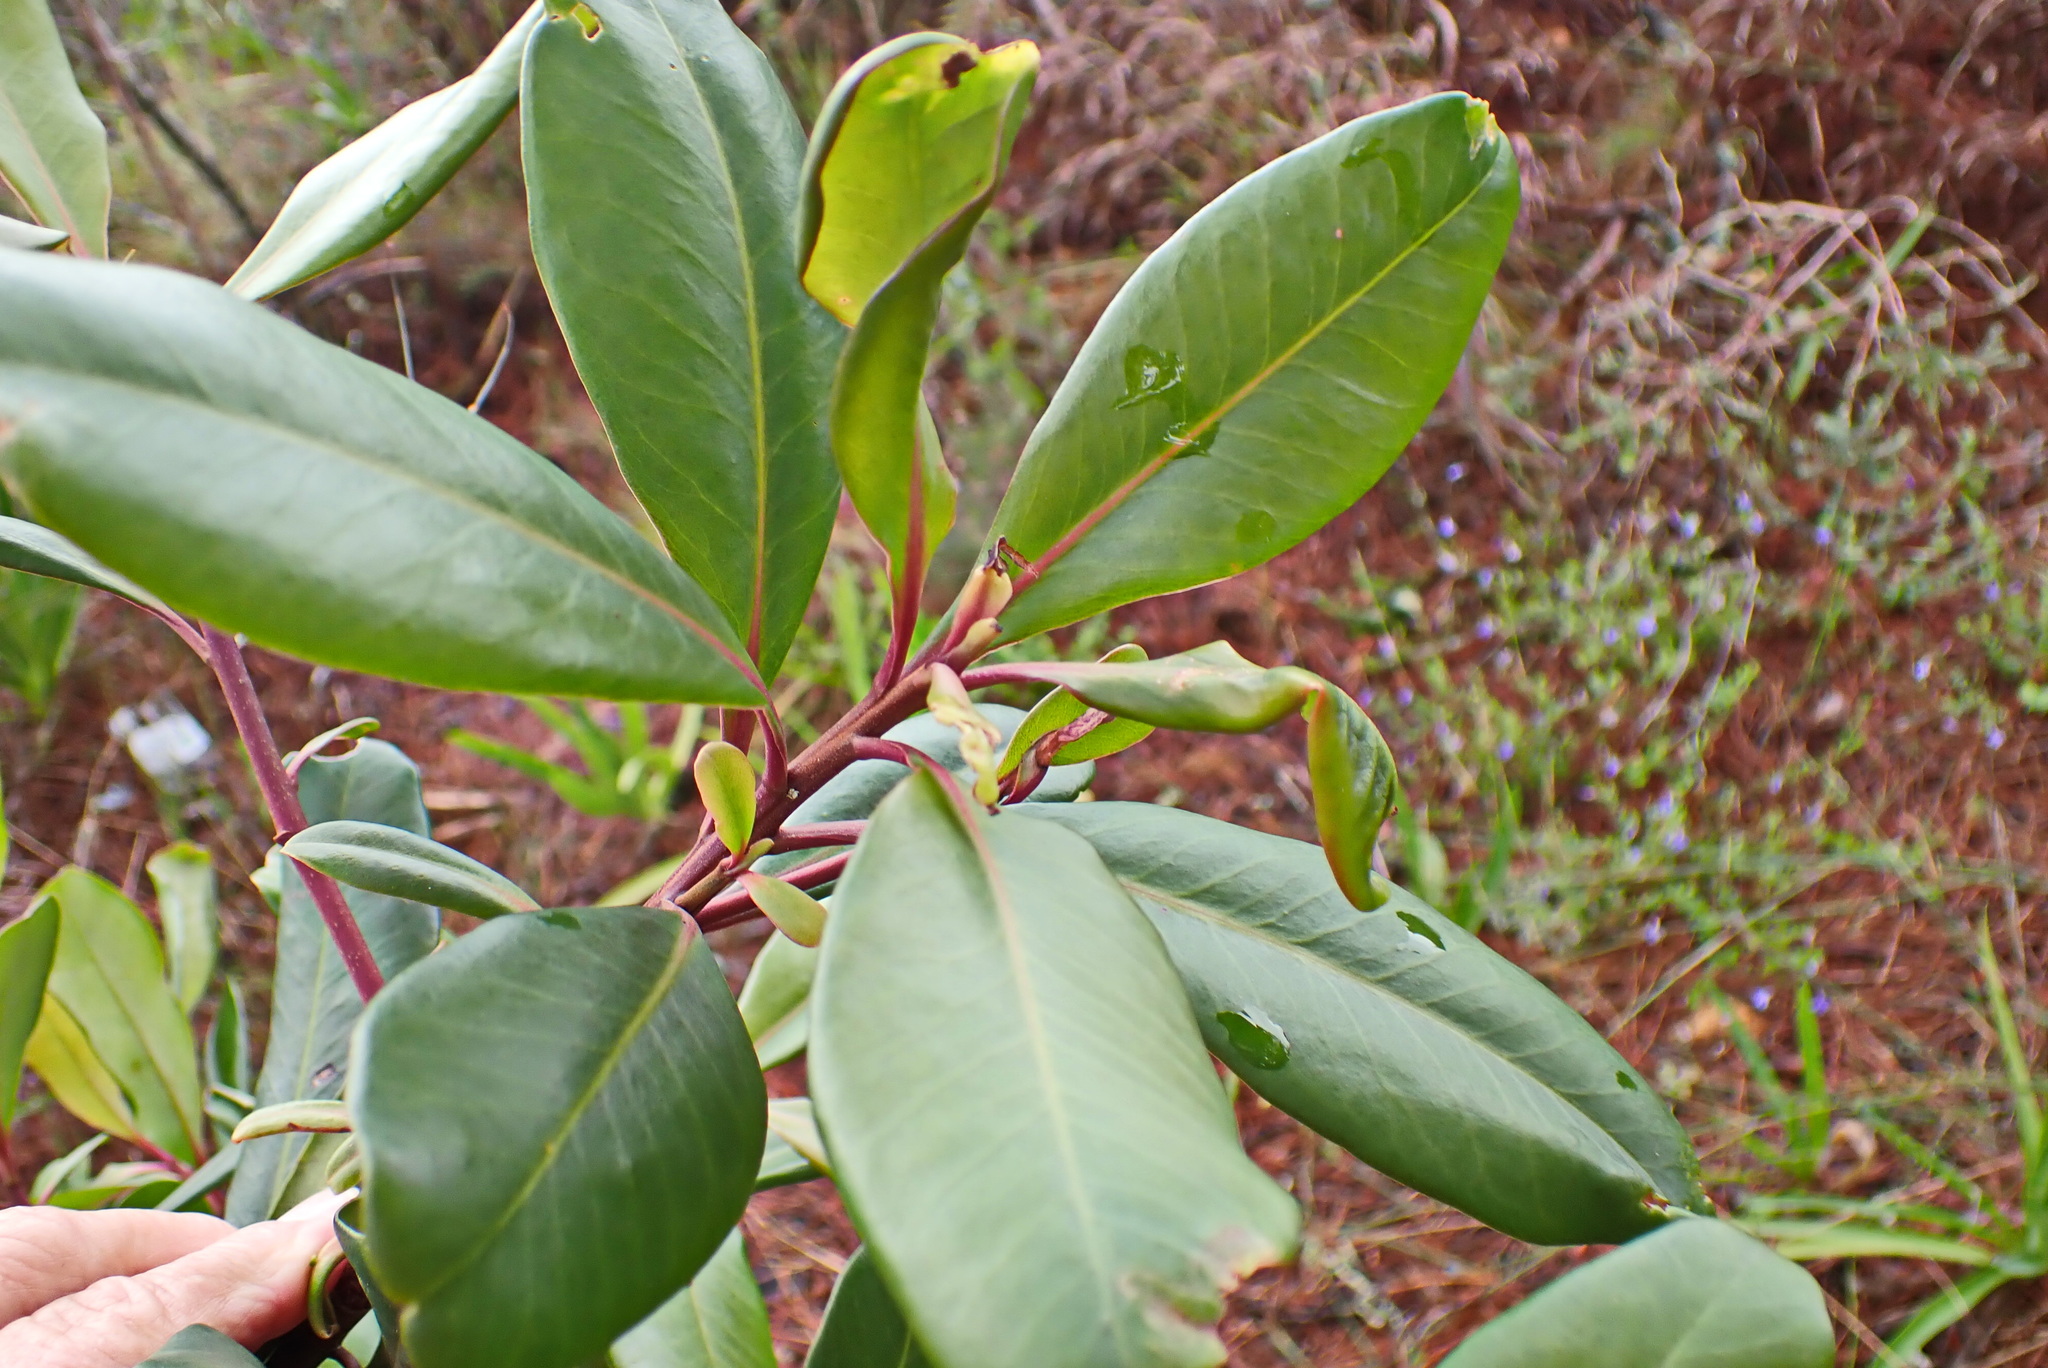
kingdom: Plantae
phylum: Tracheophyta
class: Magnoliopsida
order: Ericales
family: Primulaceae
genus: Myrsine
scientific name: Myrsine melanophloeos
